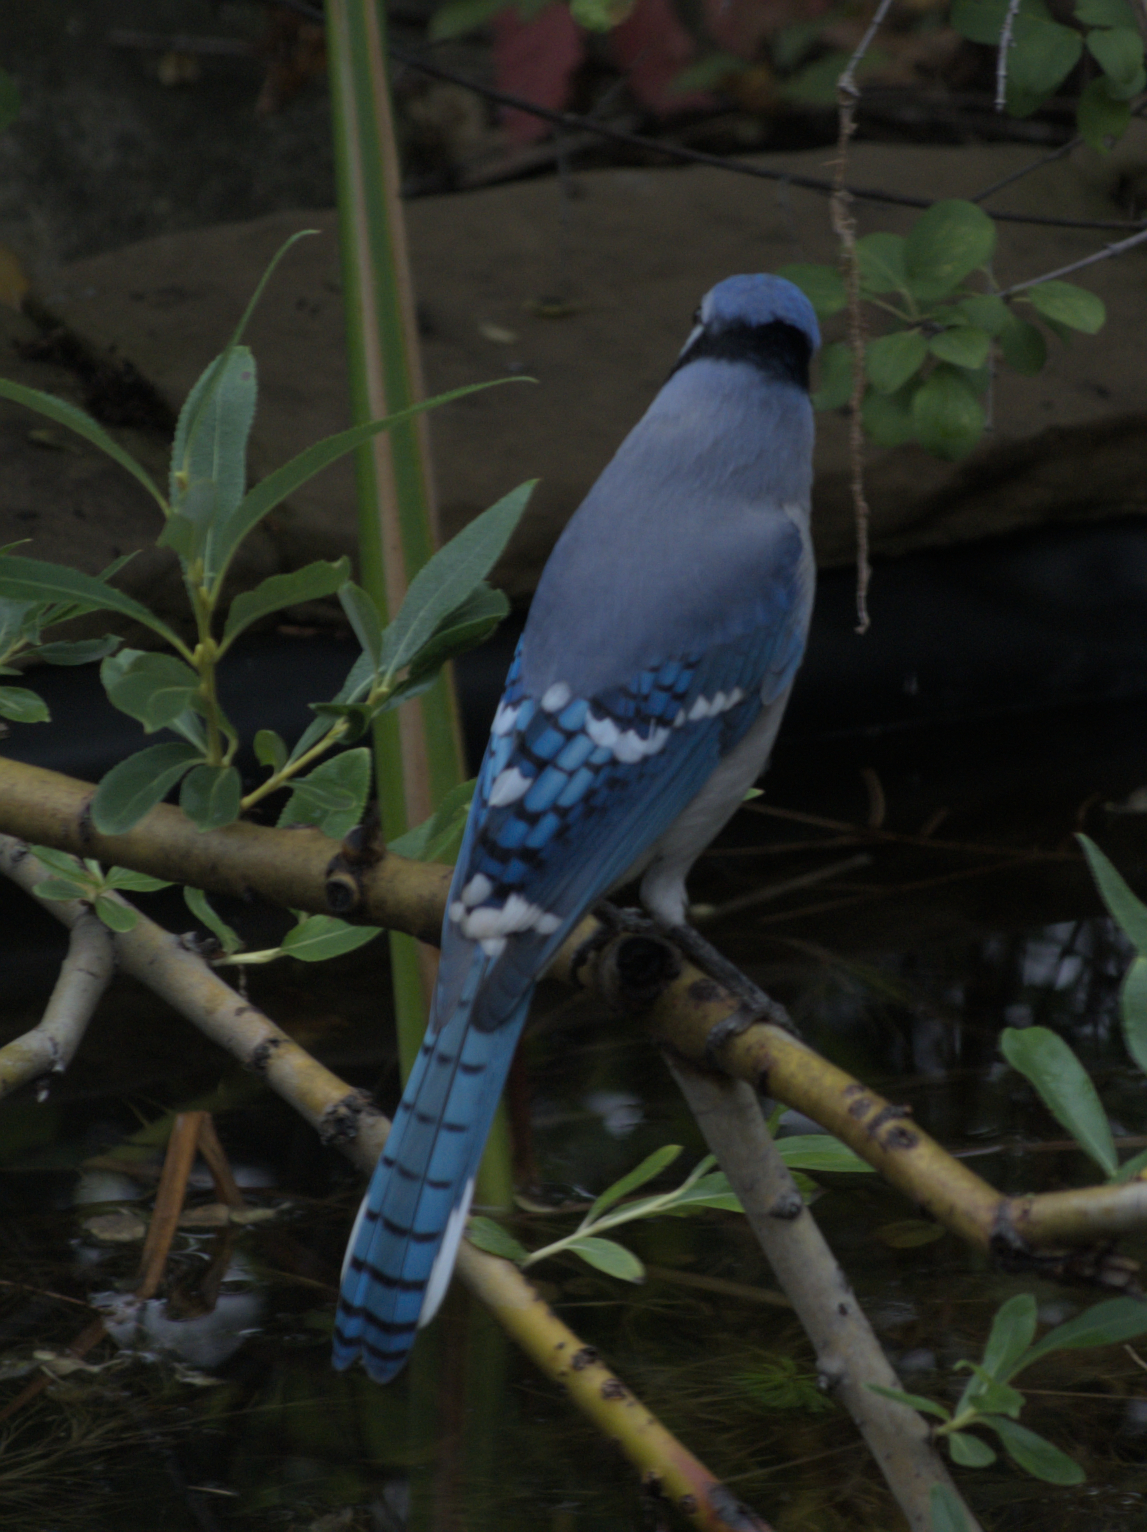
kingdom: Animalia
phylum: Chordata
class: Aves
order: Passeriformes
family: Corvidae
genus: Cyanocitta
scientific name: Cyanocitta cristata
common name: Blue jay
